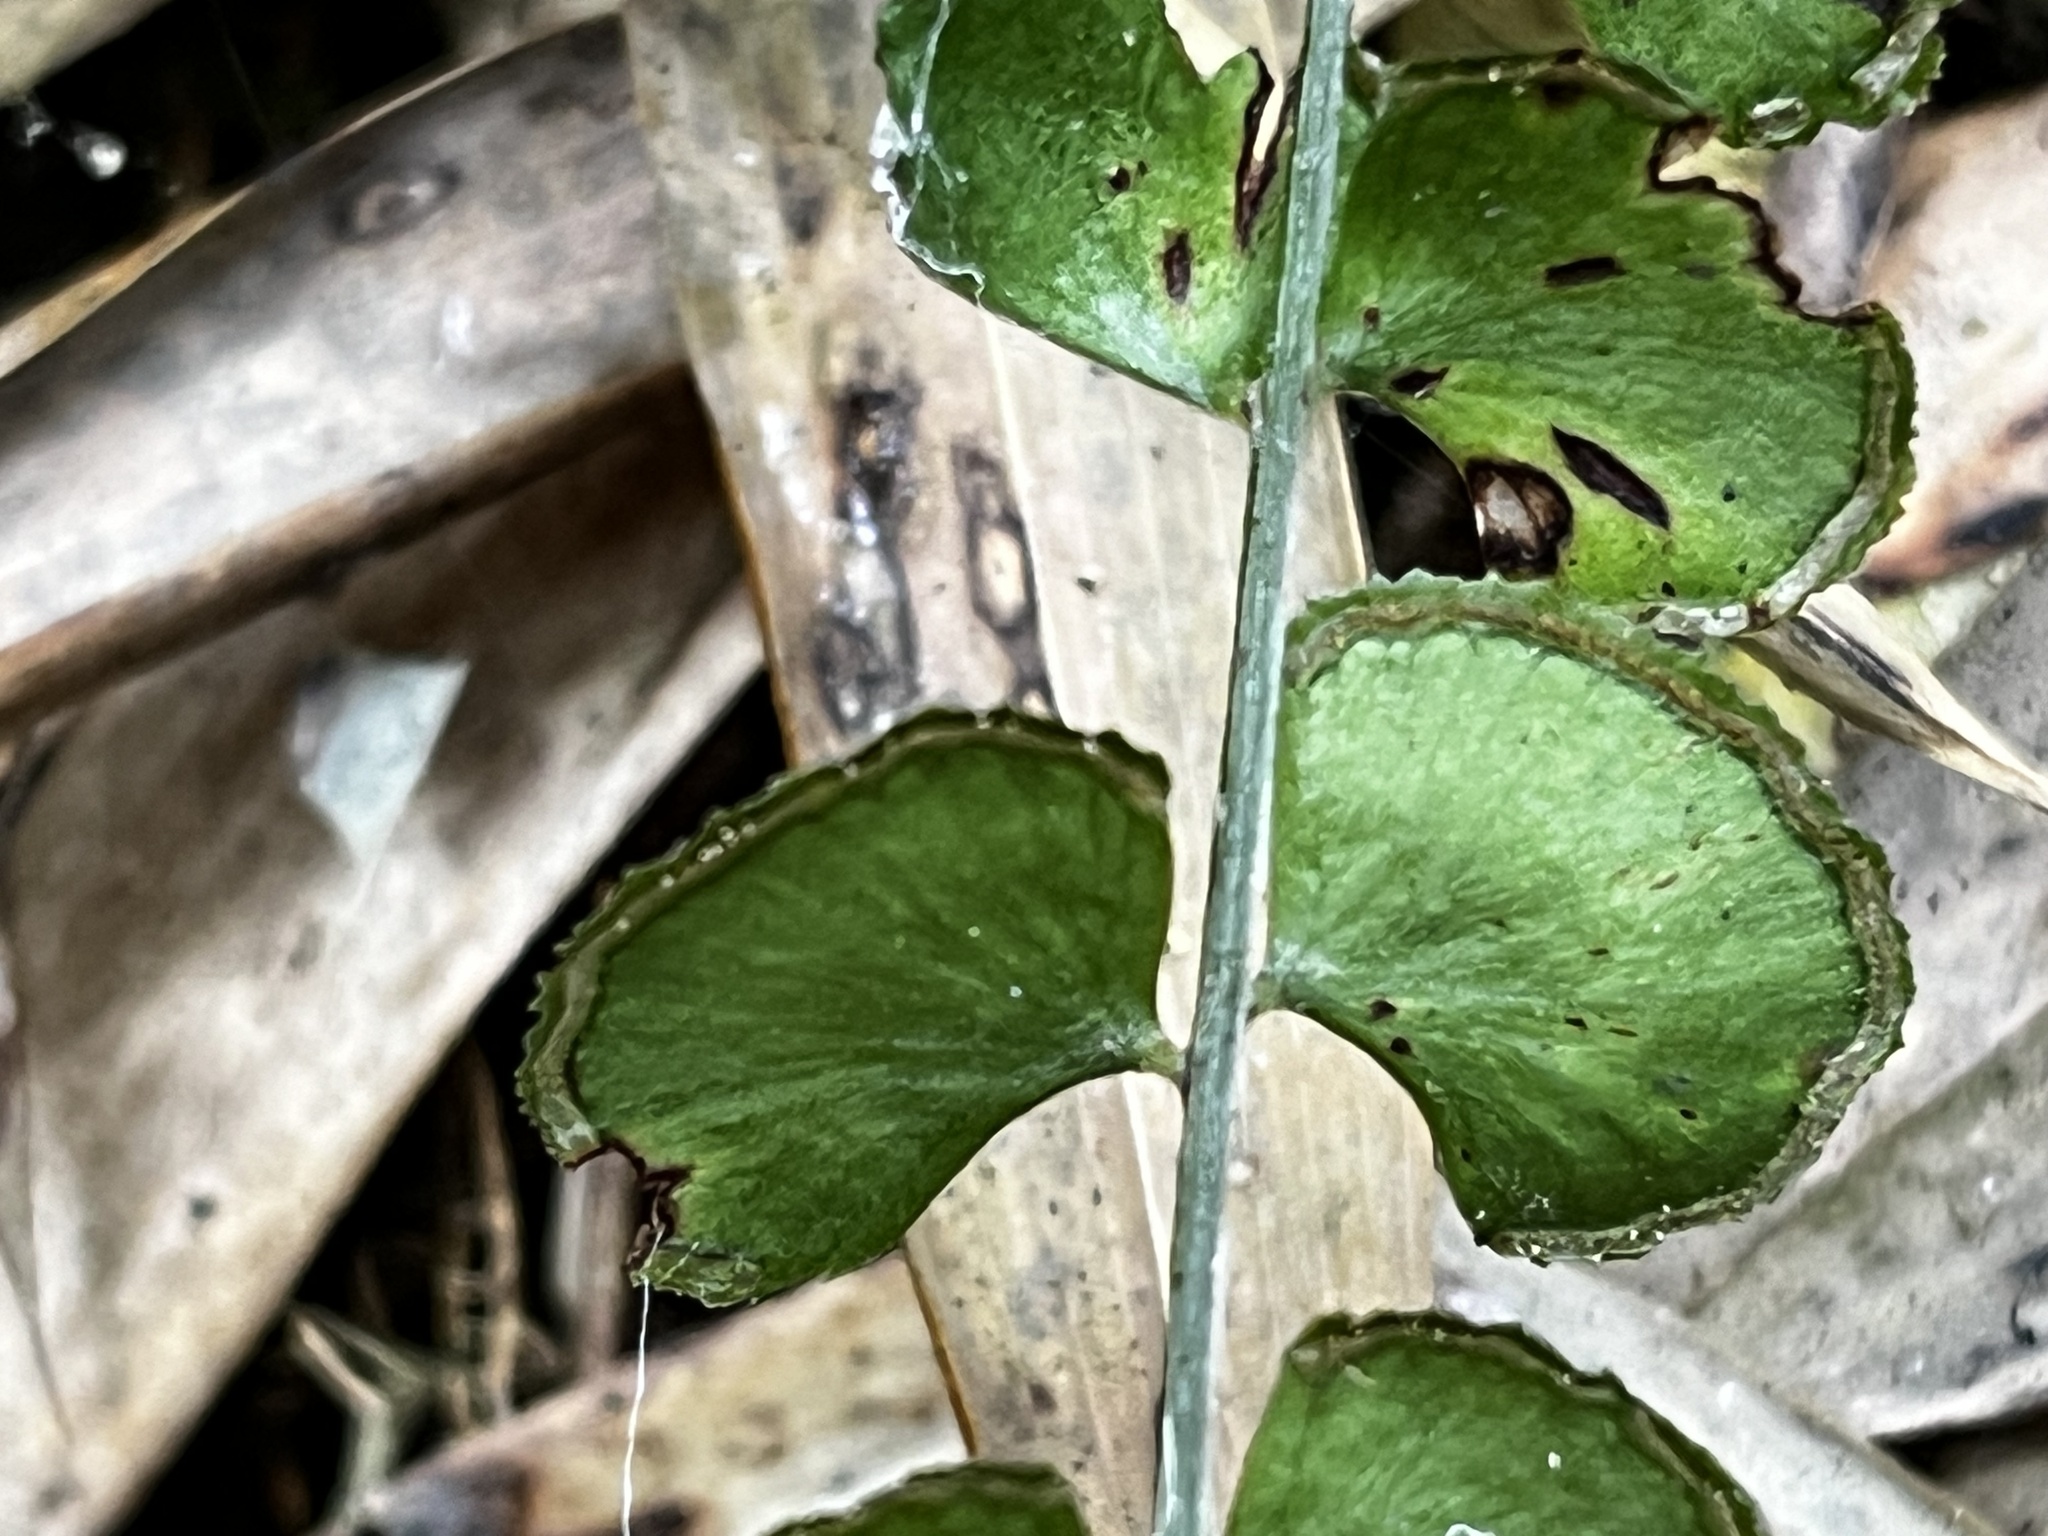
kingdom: Plantae
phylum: Tracheophyta
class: Polypodiopsida
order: Polypodiales
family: Lindsaeaceae
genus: Lindsaea
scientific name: Lindsaea orbiculata
